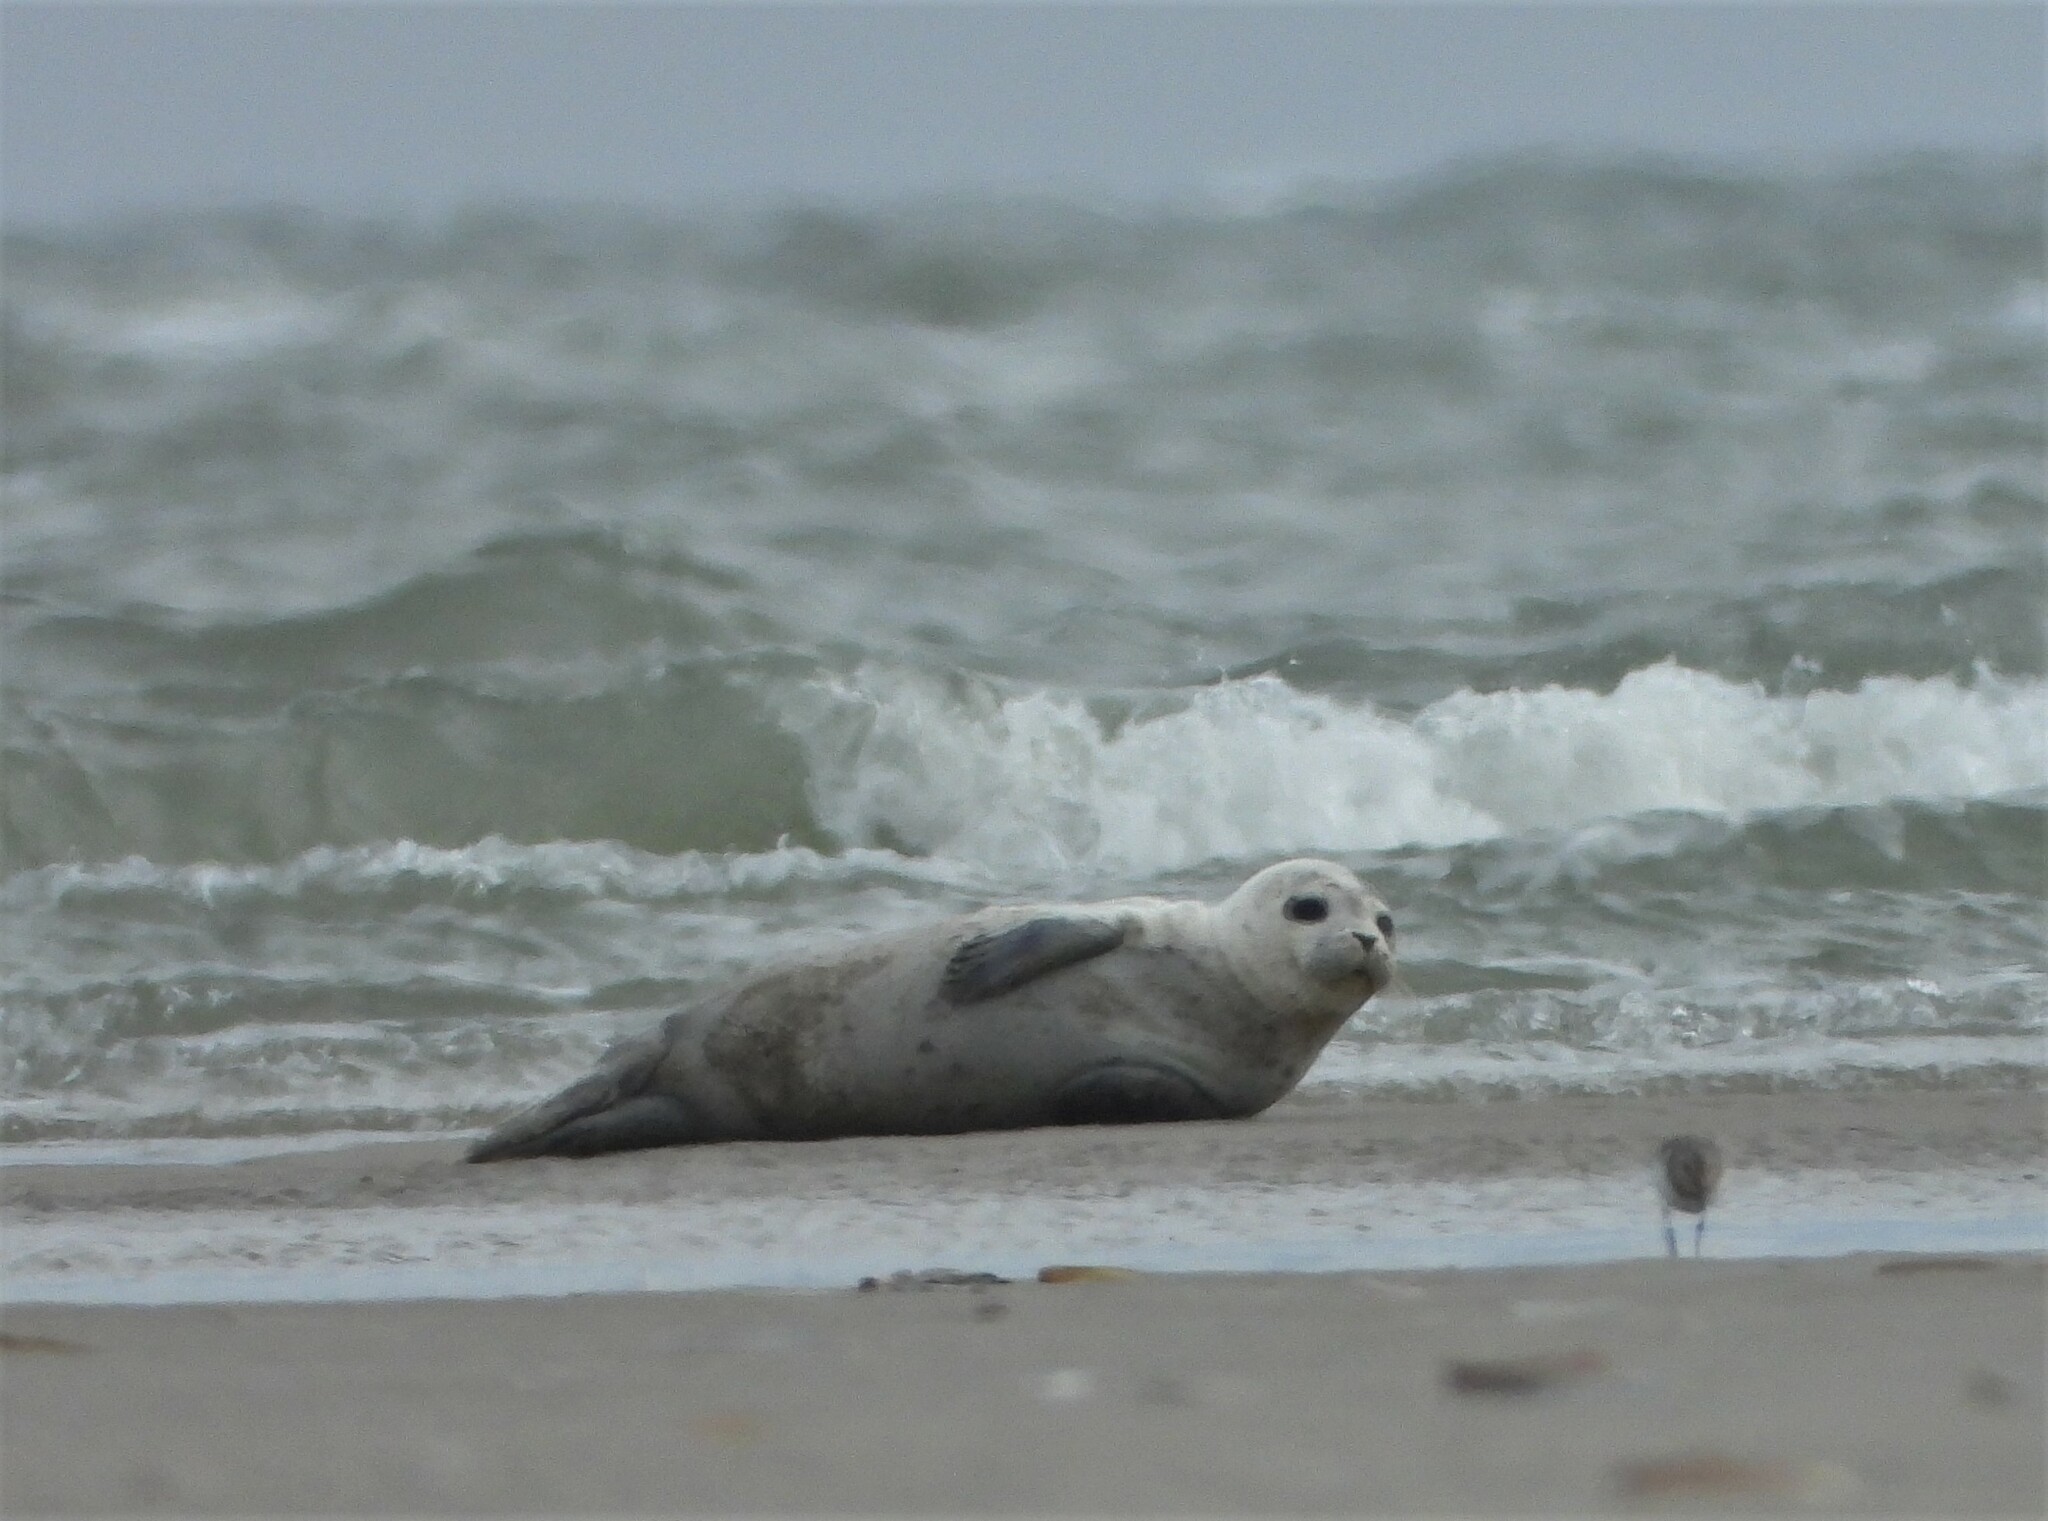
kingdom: Animalia
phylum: Chordata
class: Mammalia
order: Carnivora
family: Phocidae
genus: Phoca
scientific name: Phoca vitulina
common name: Harbor seal
